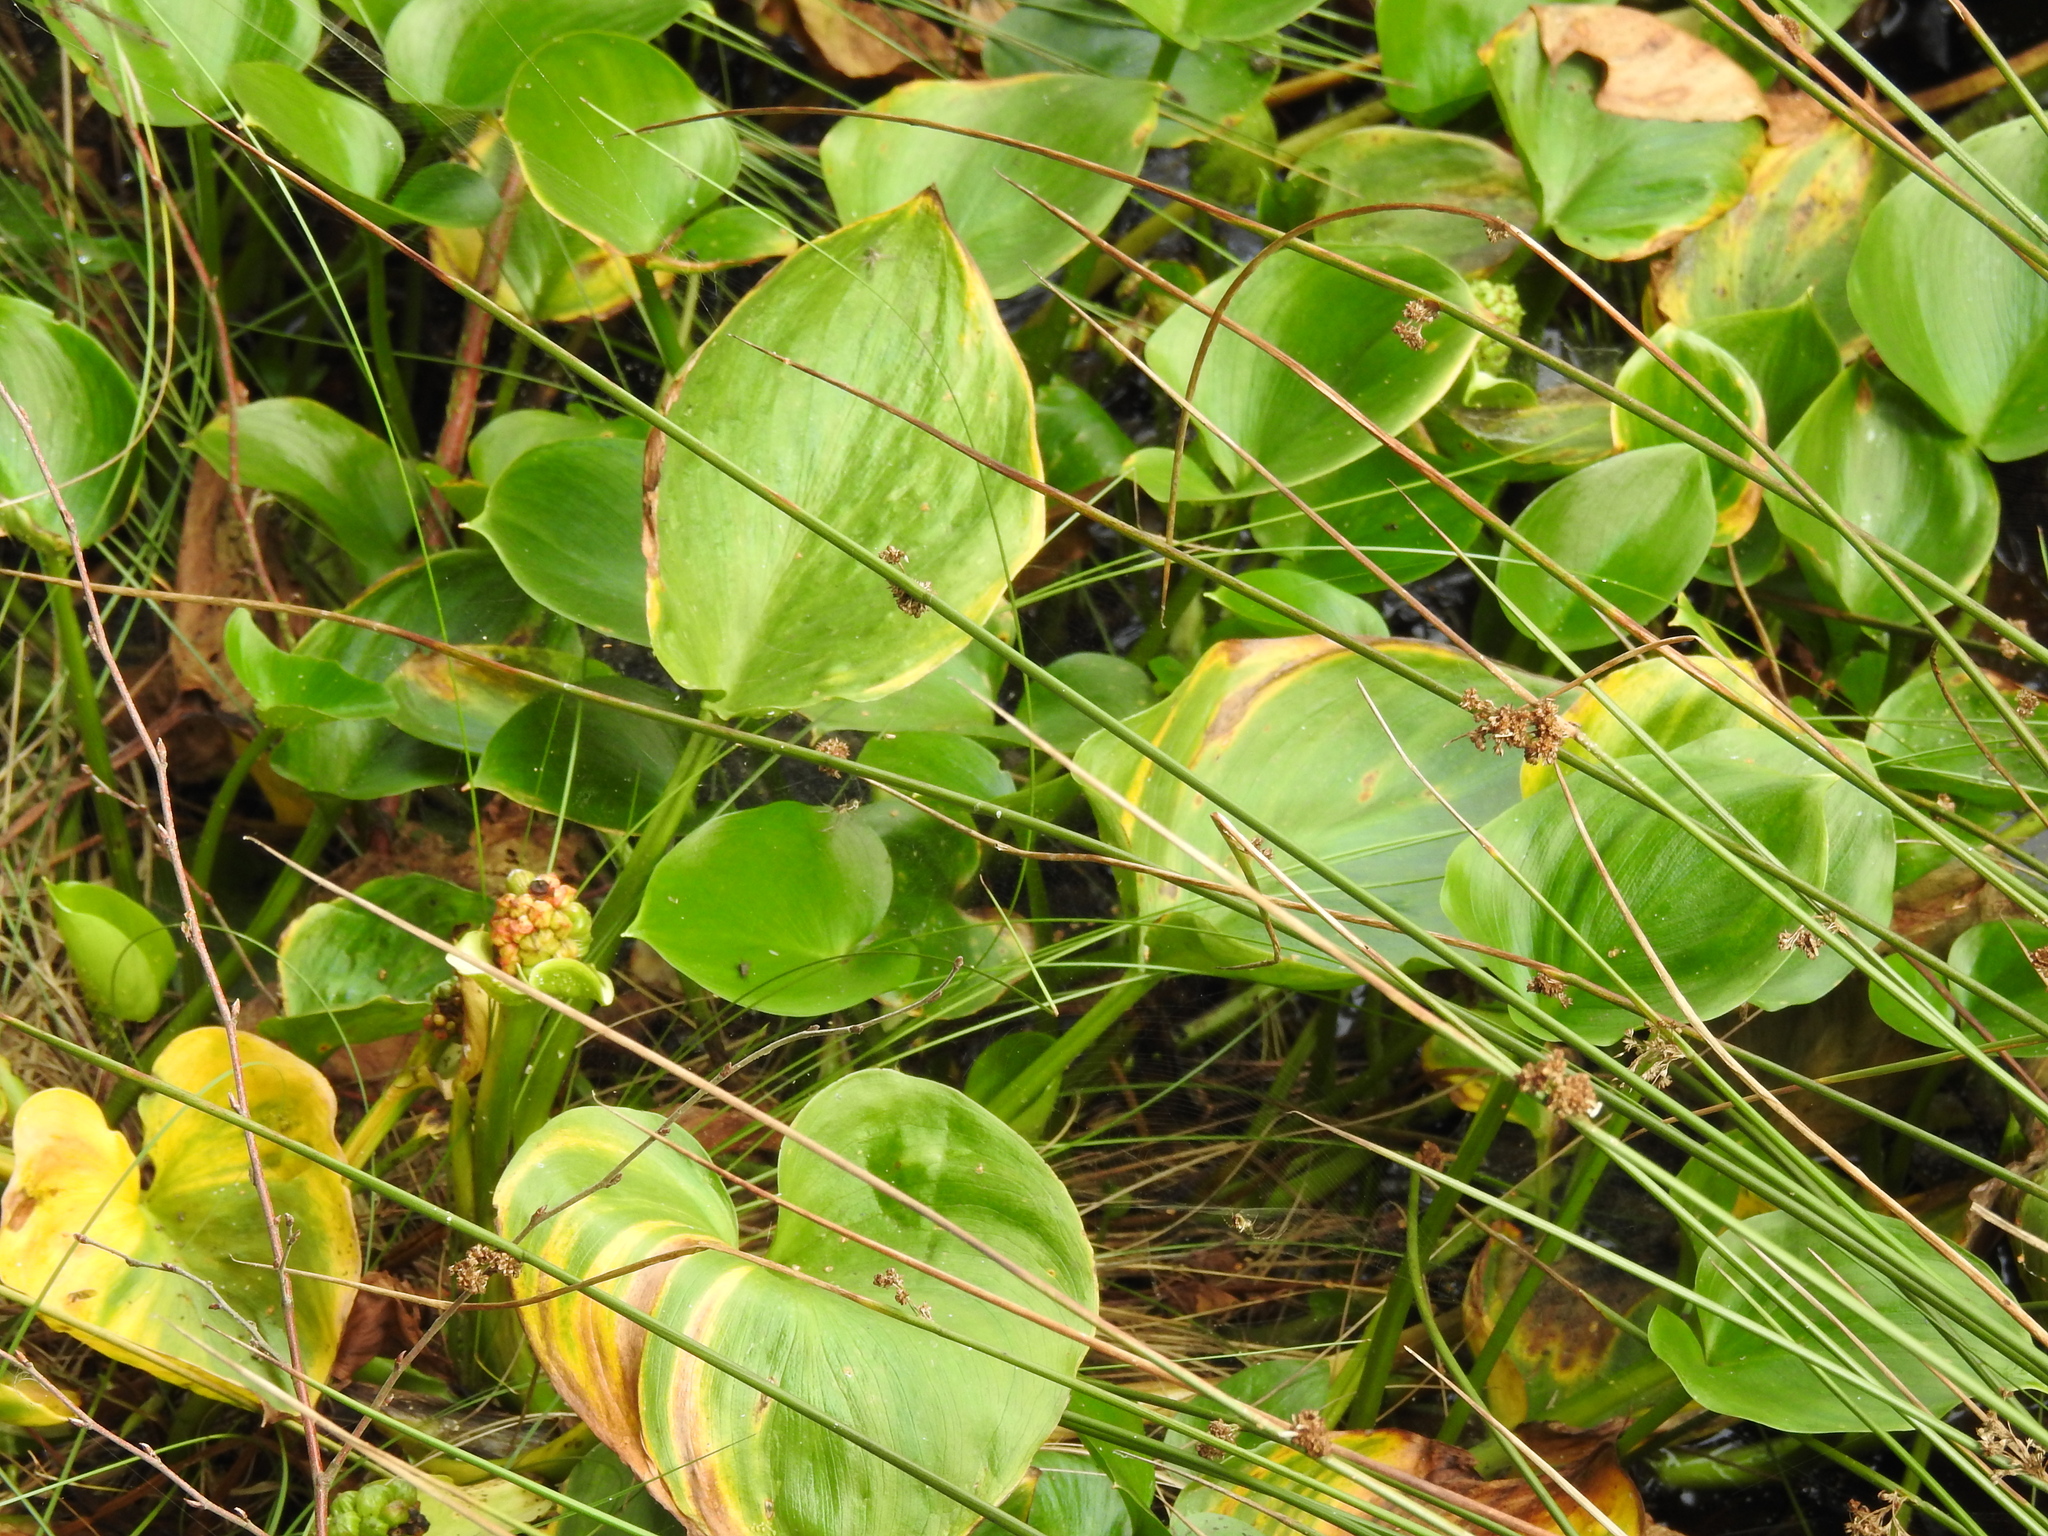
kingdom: Plantae
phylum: Tracheophyta
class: Liliopsida
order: Alismatales
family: Araceae
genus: Calla
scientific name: Calla palustris
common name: Bog arum
